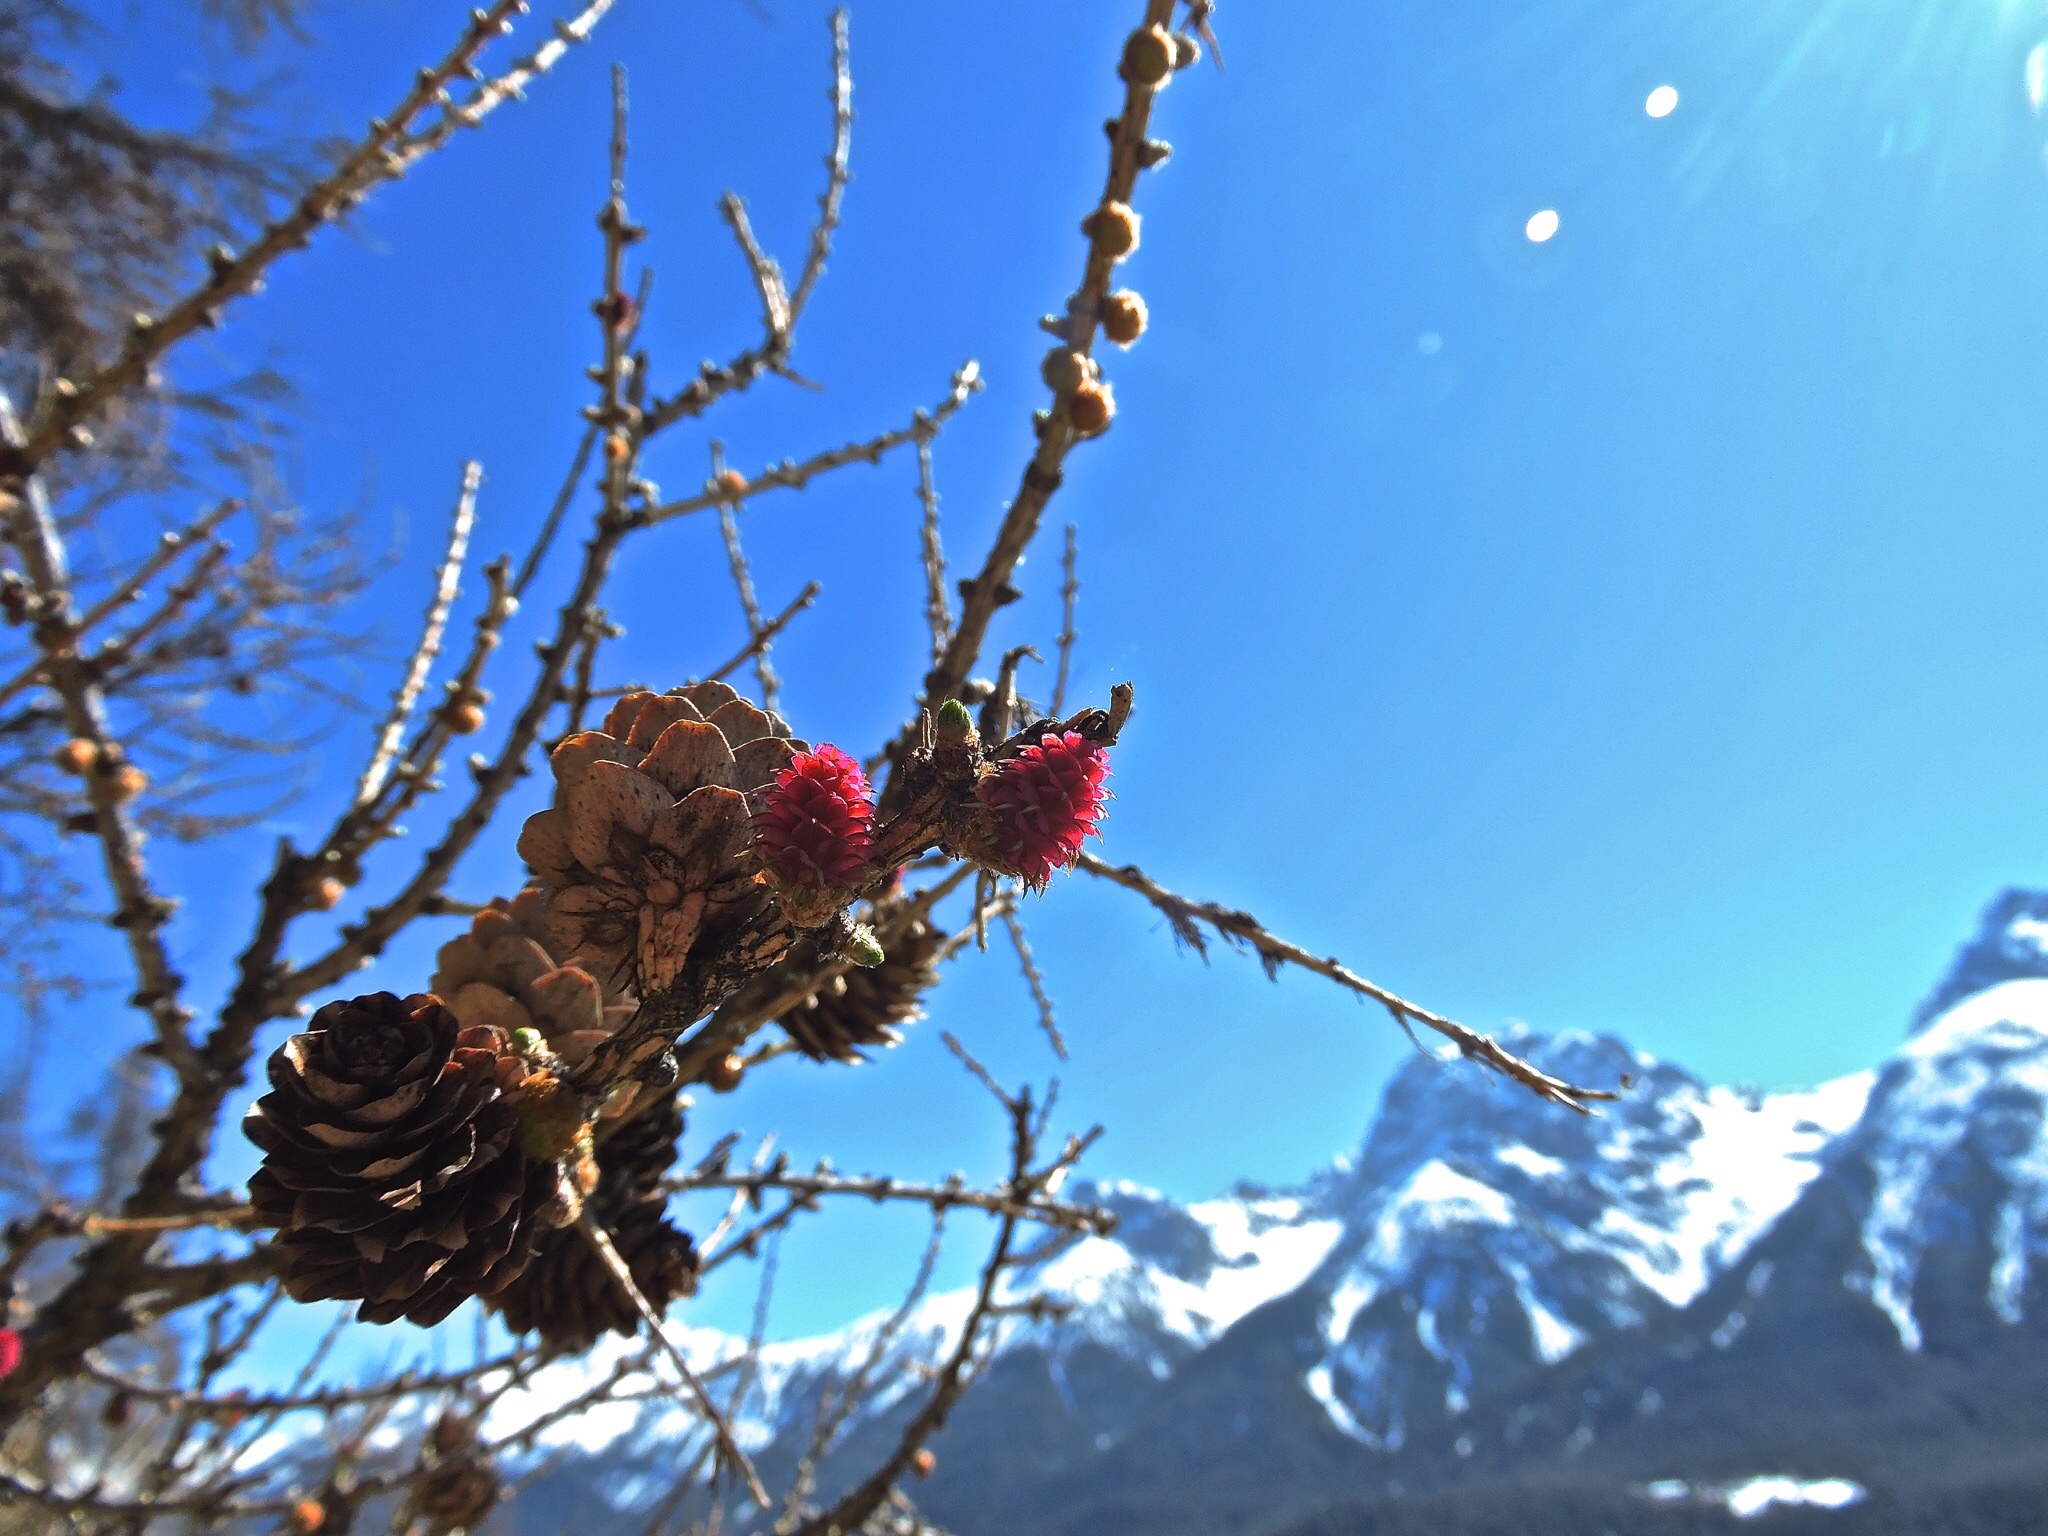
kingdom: Plantae
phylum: Tracheophyta
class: Pinopsida
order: Pinales
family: Pinaceae
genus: Larix
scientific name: Larix decidua
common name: European larch
